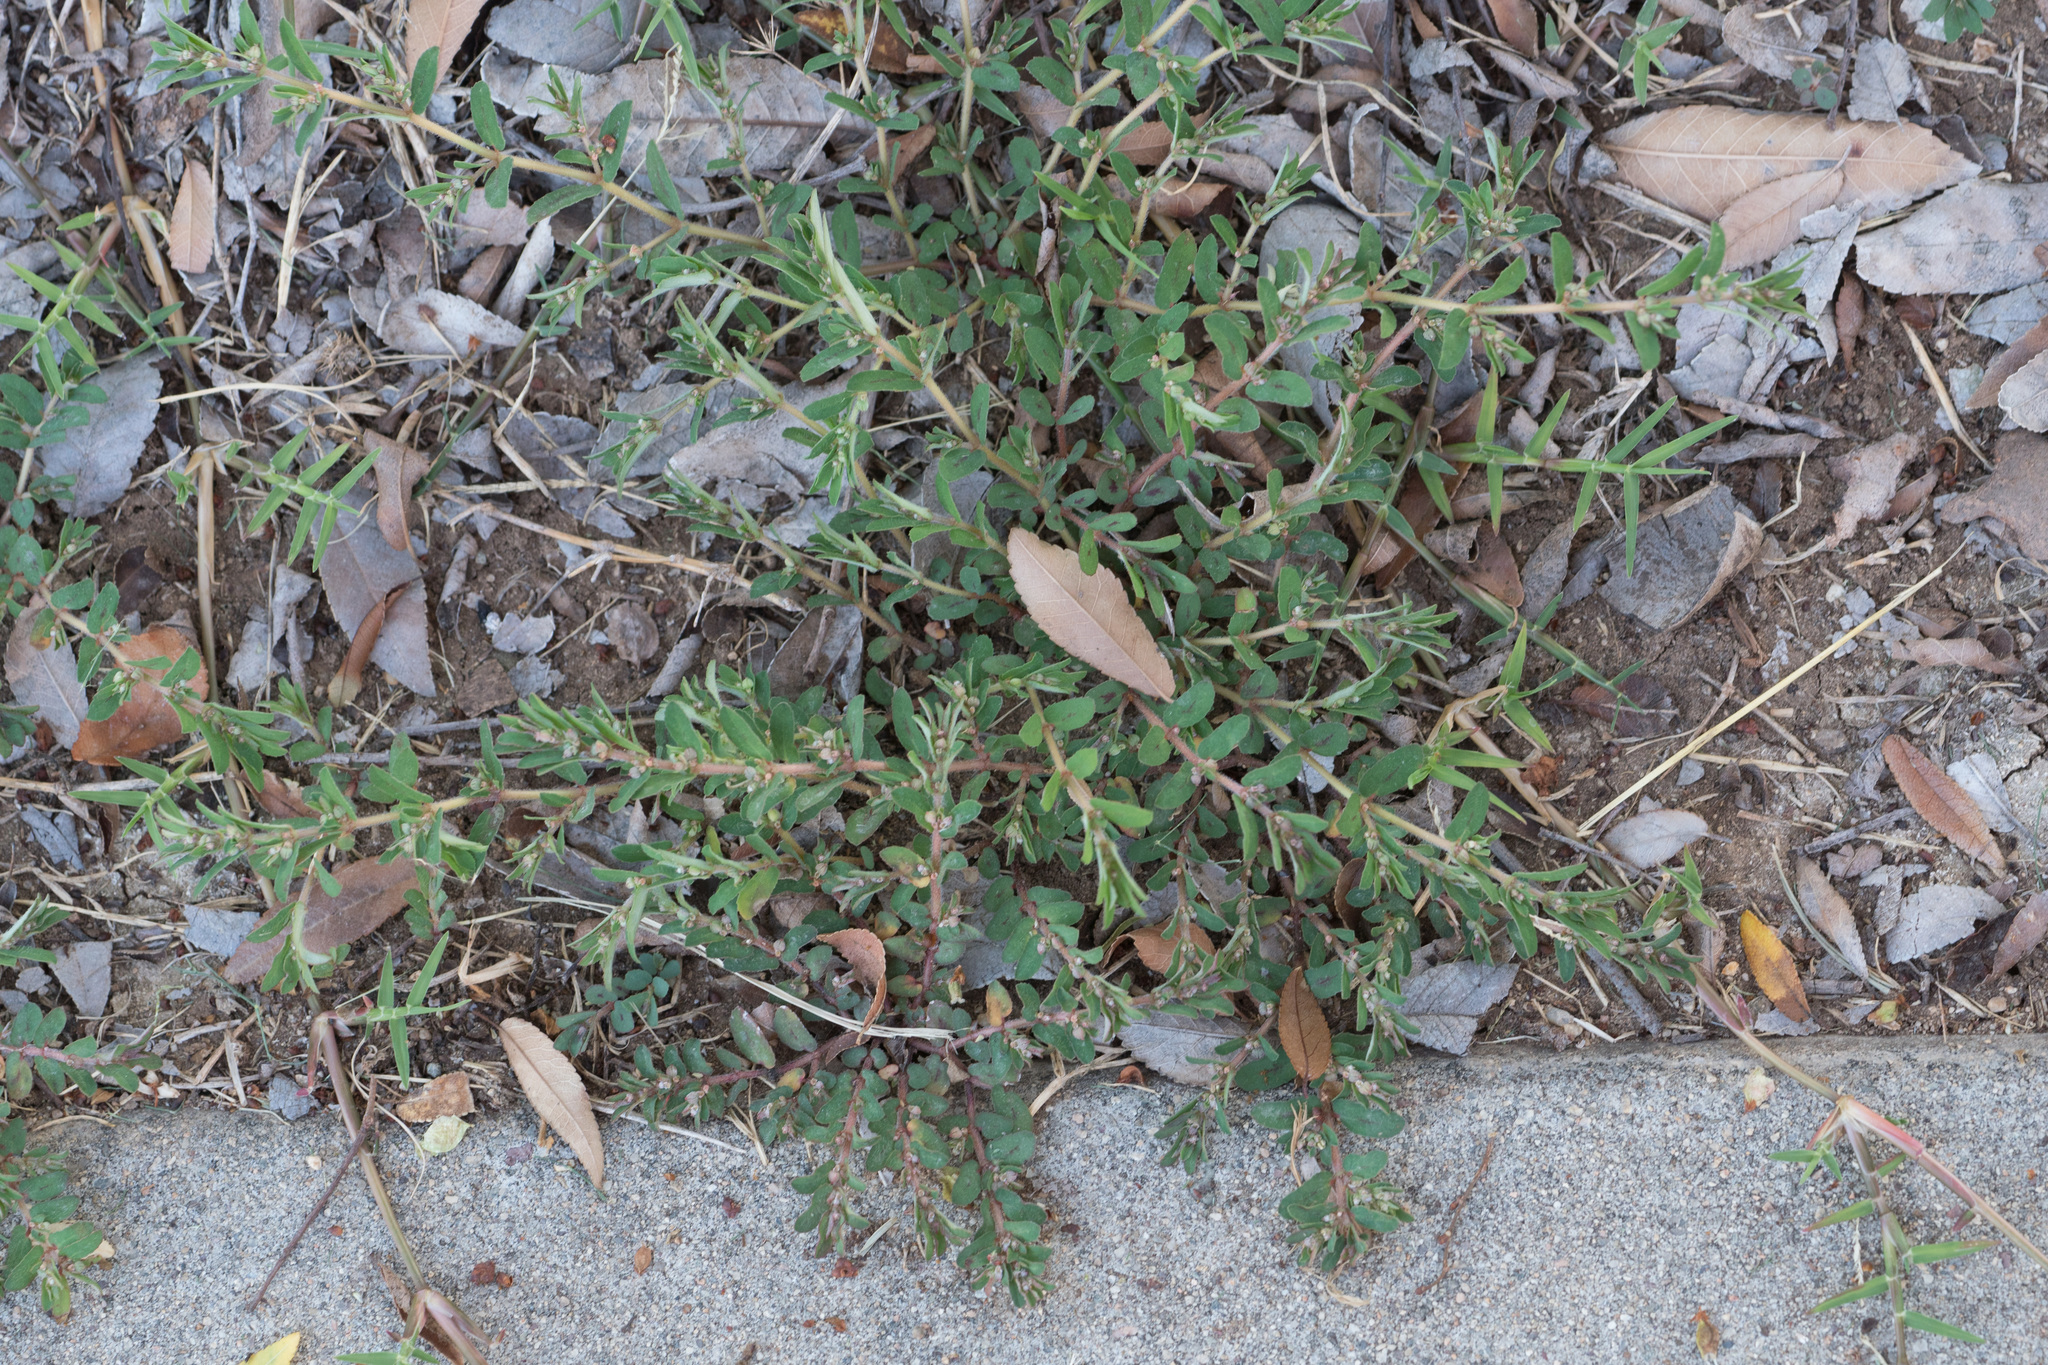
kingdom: Plantae
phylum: Tracheophyta
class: Magnoliopsida
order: Malpighiales
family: Euphorbiaceae
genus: Euphorbia
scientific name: Euphorbia maculata
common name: Spotted spurge
